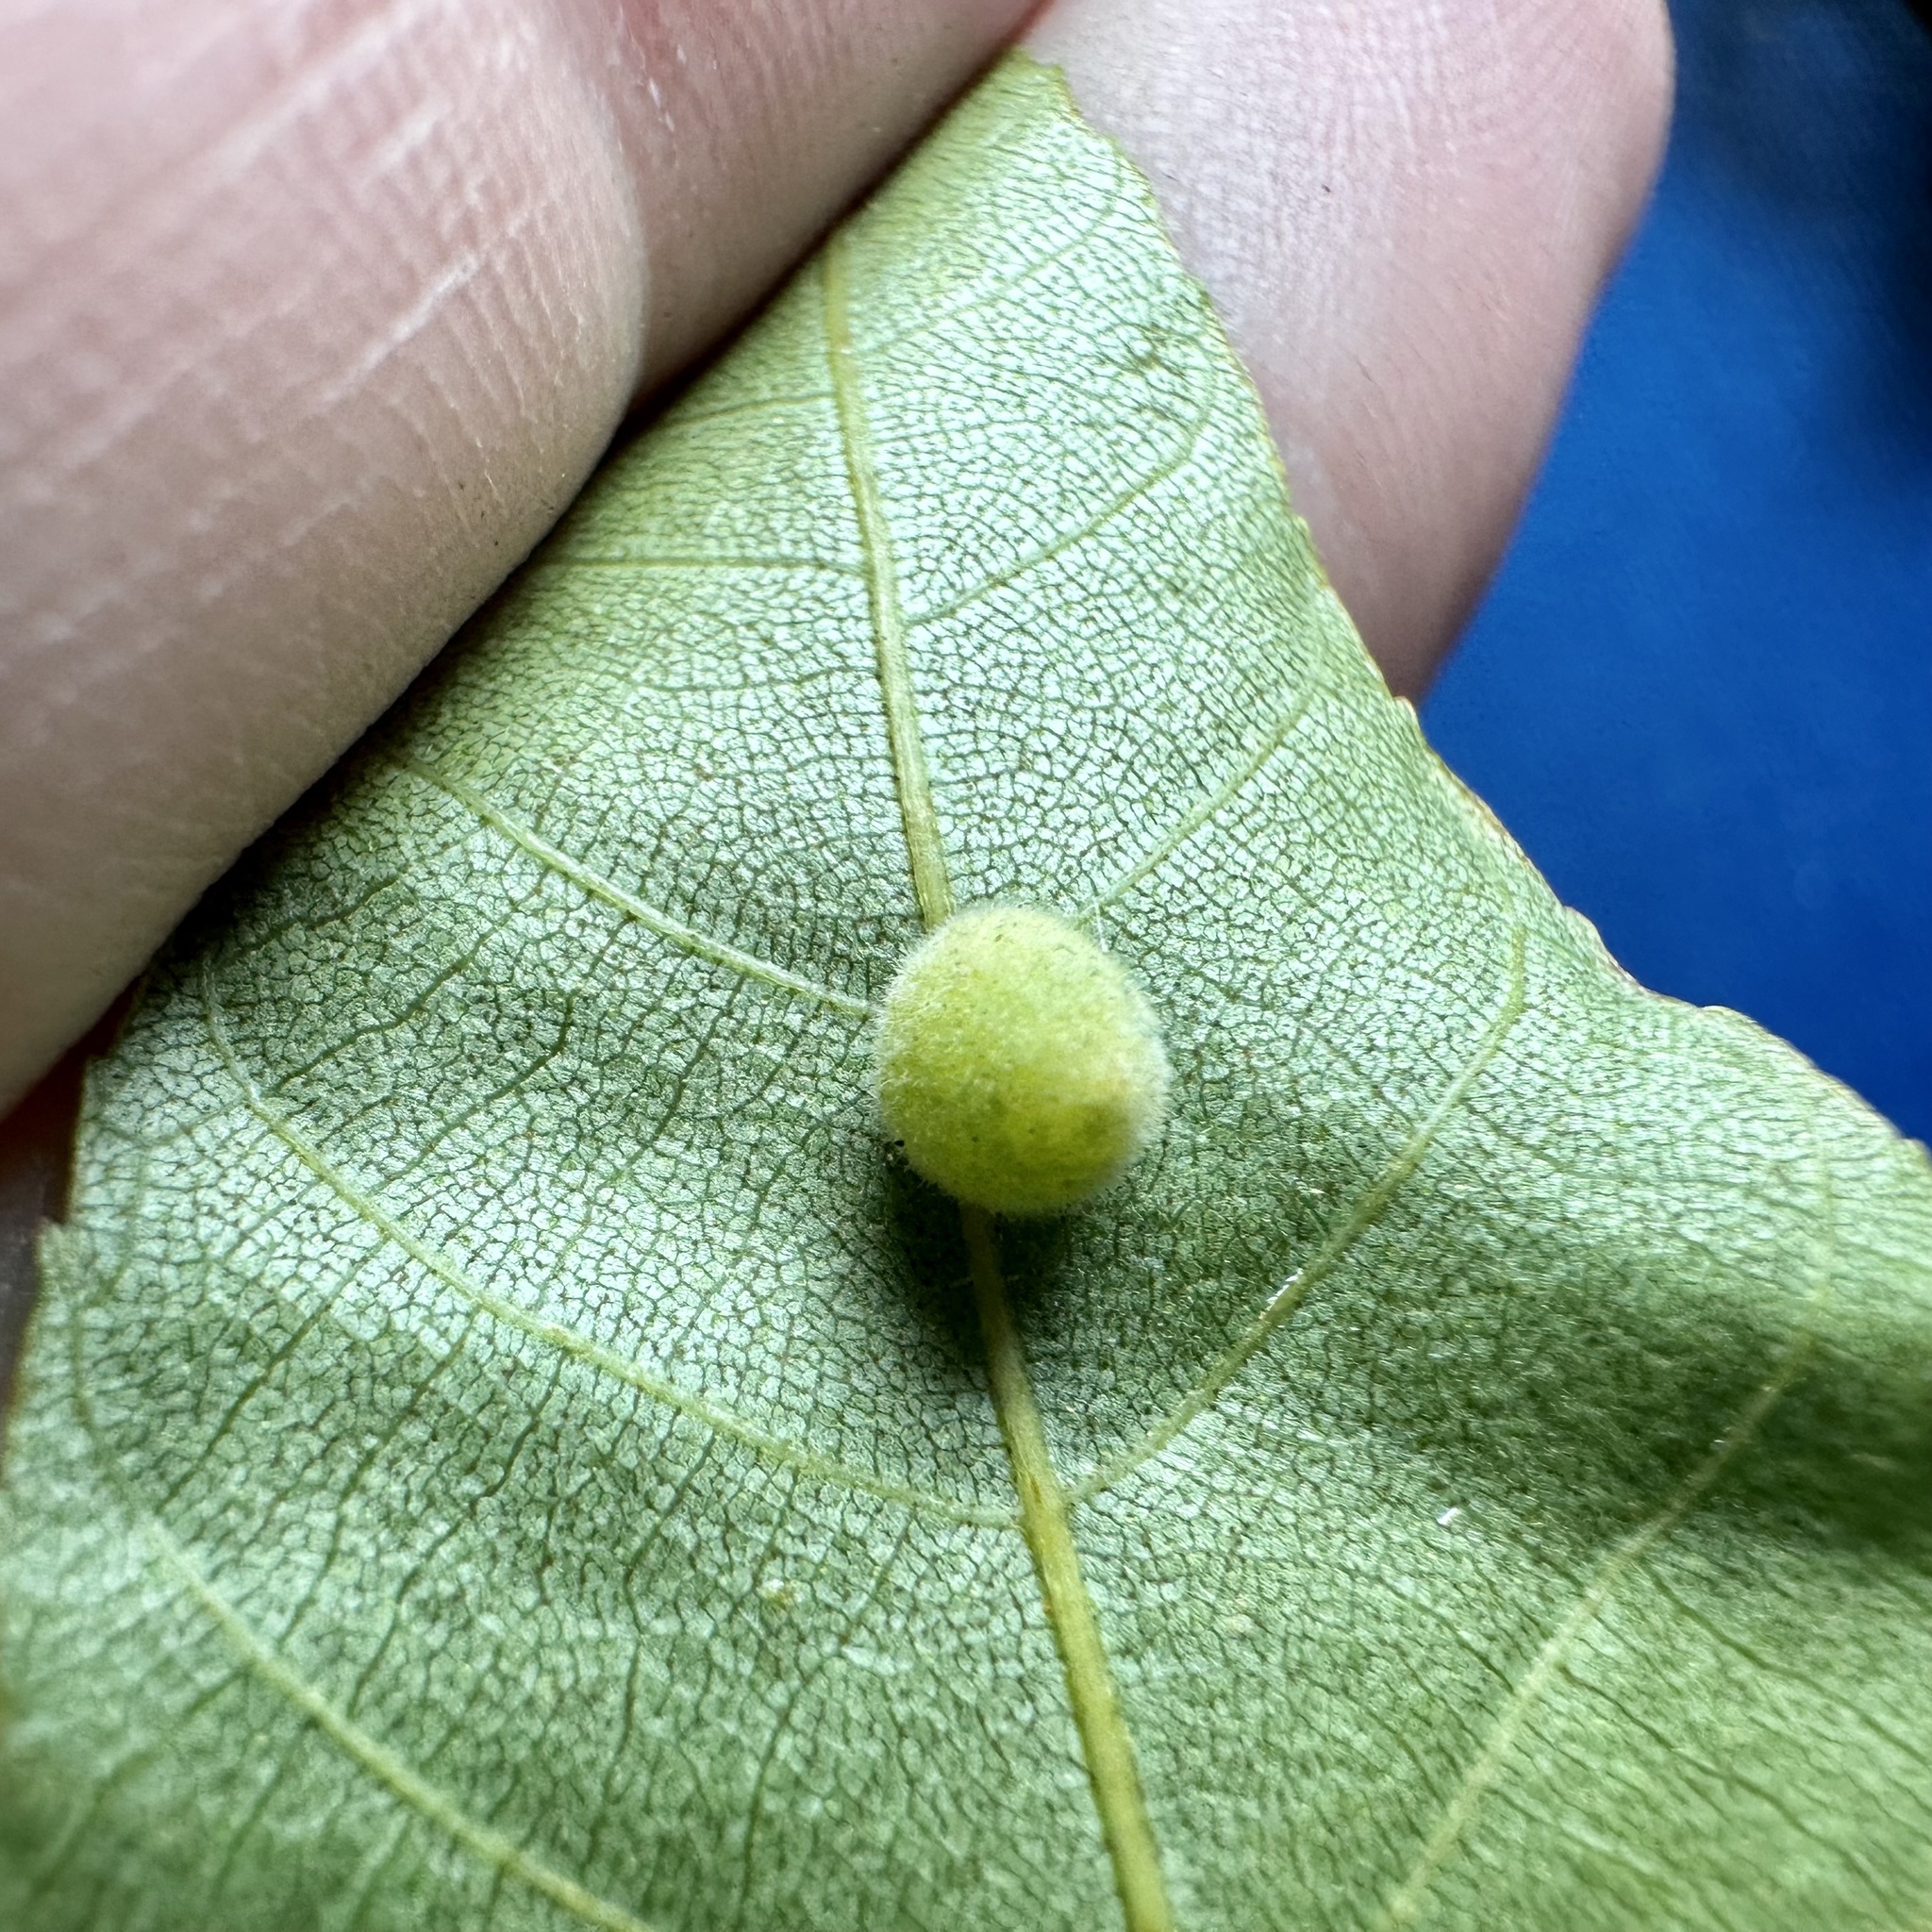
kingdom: Animalia
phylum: Arthropoda
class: Insecta
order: Diptera
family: Cecidomyiidae
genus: Caryomyia
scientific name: Caryomyia persicoides
